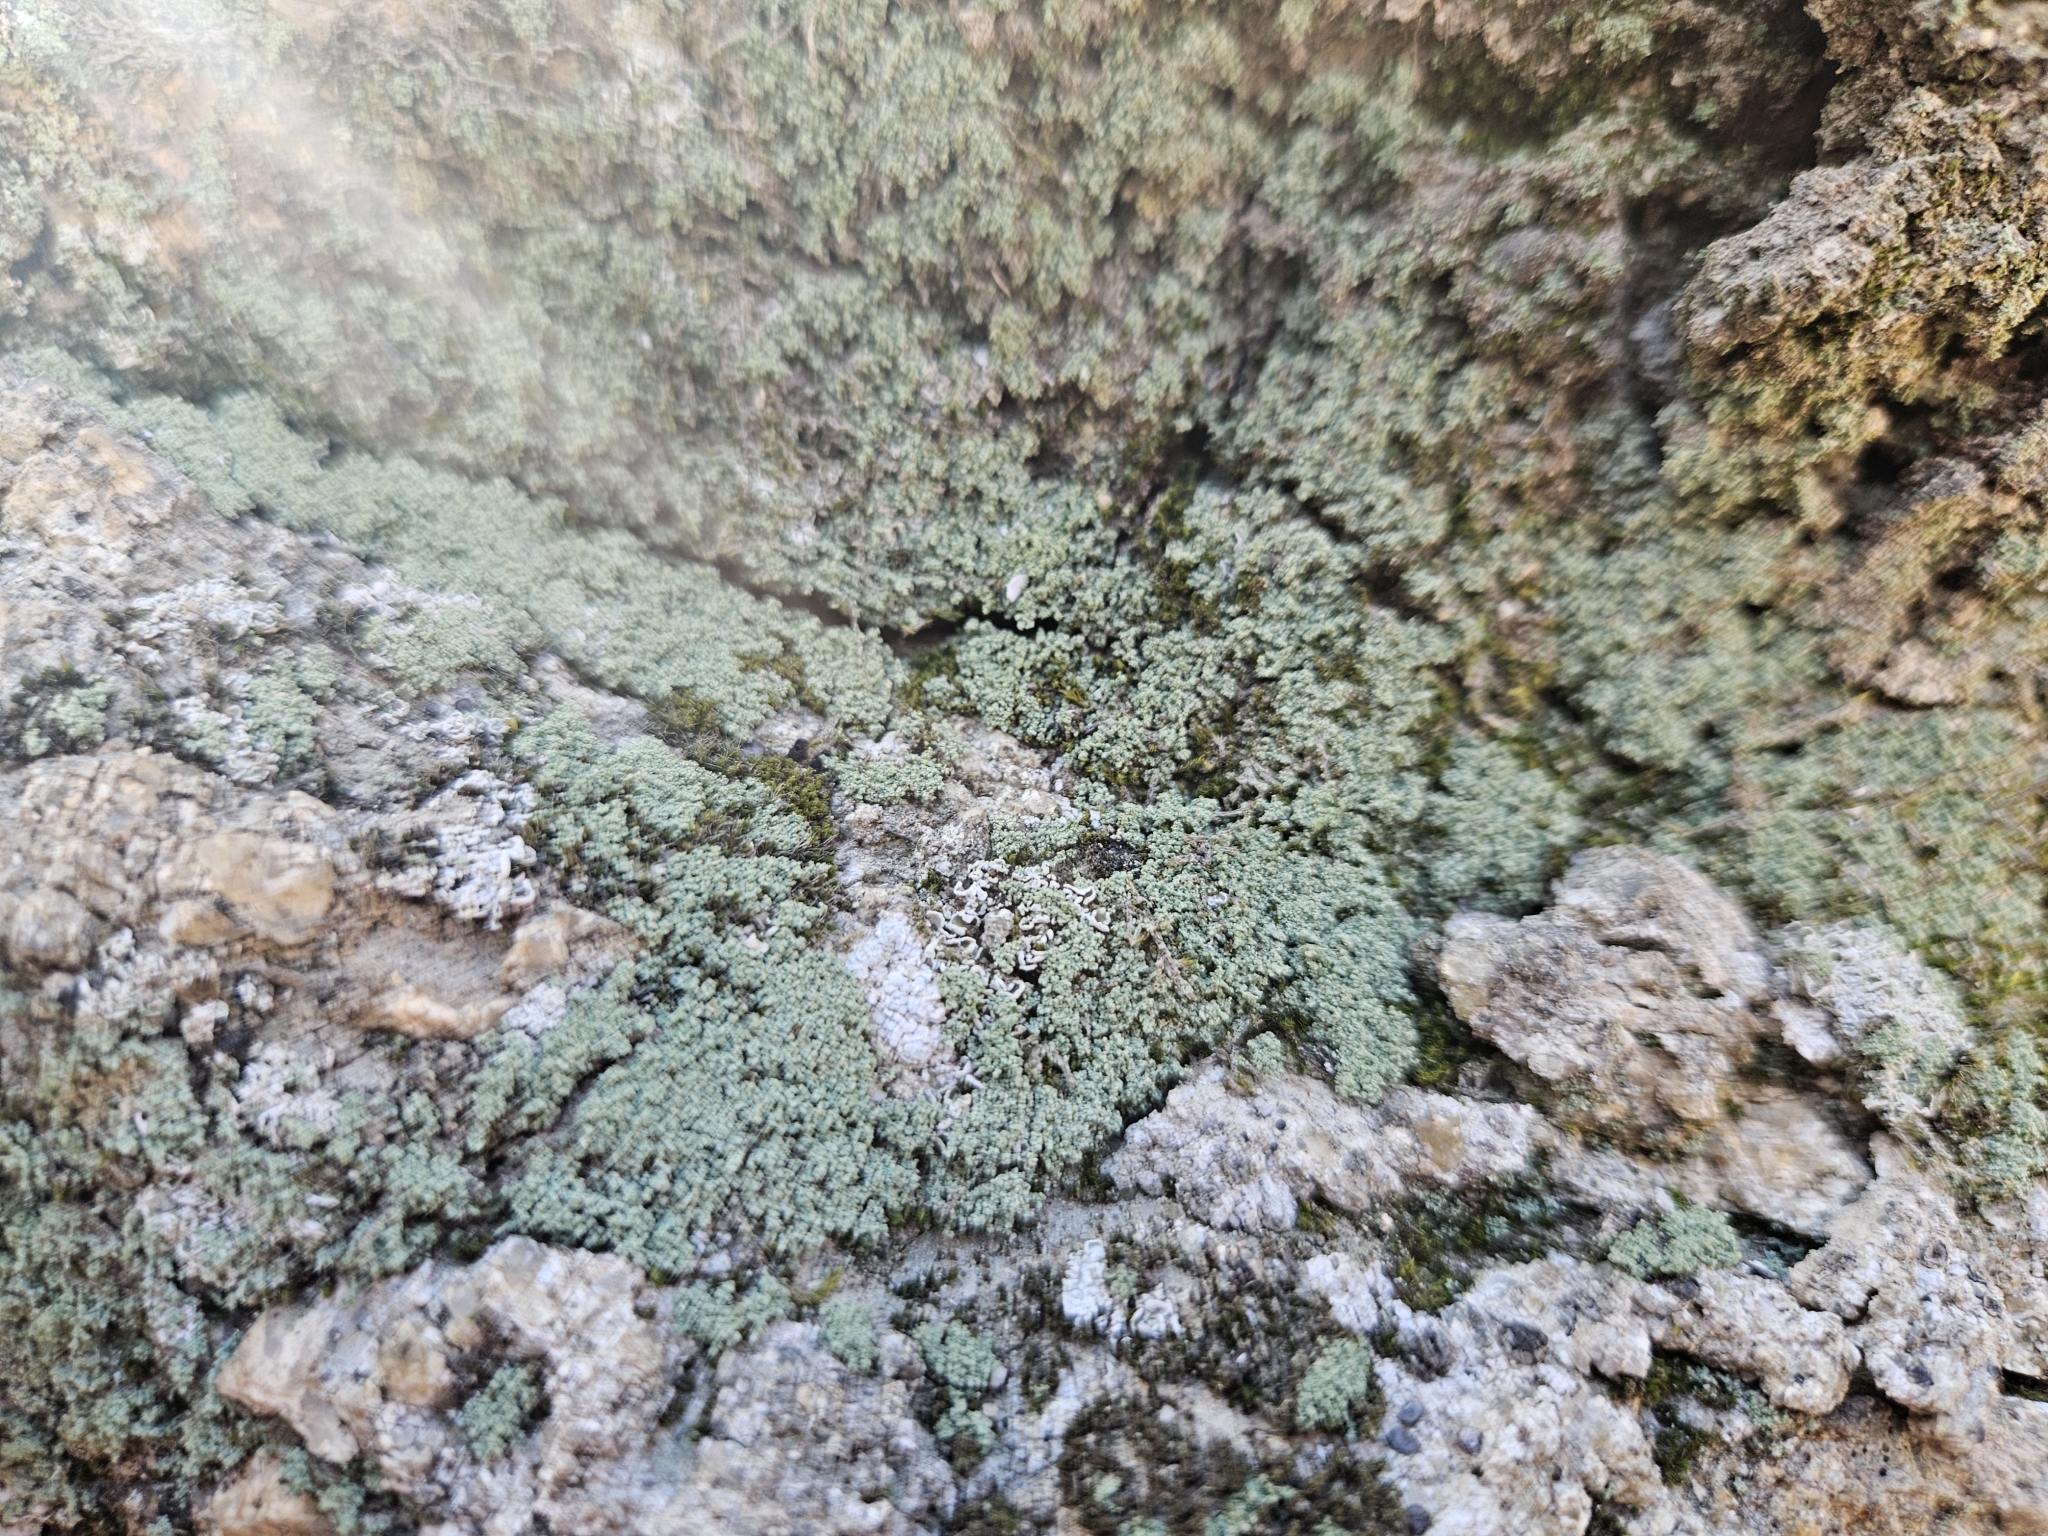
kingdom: Fungi
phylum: Ascomycota
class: Lecanoromycetes
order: Teloschistales
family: Leprocaulaceae
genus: Leprocaulon
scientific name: Leprocaulon quisquiliare
